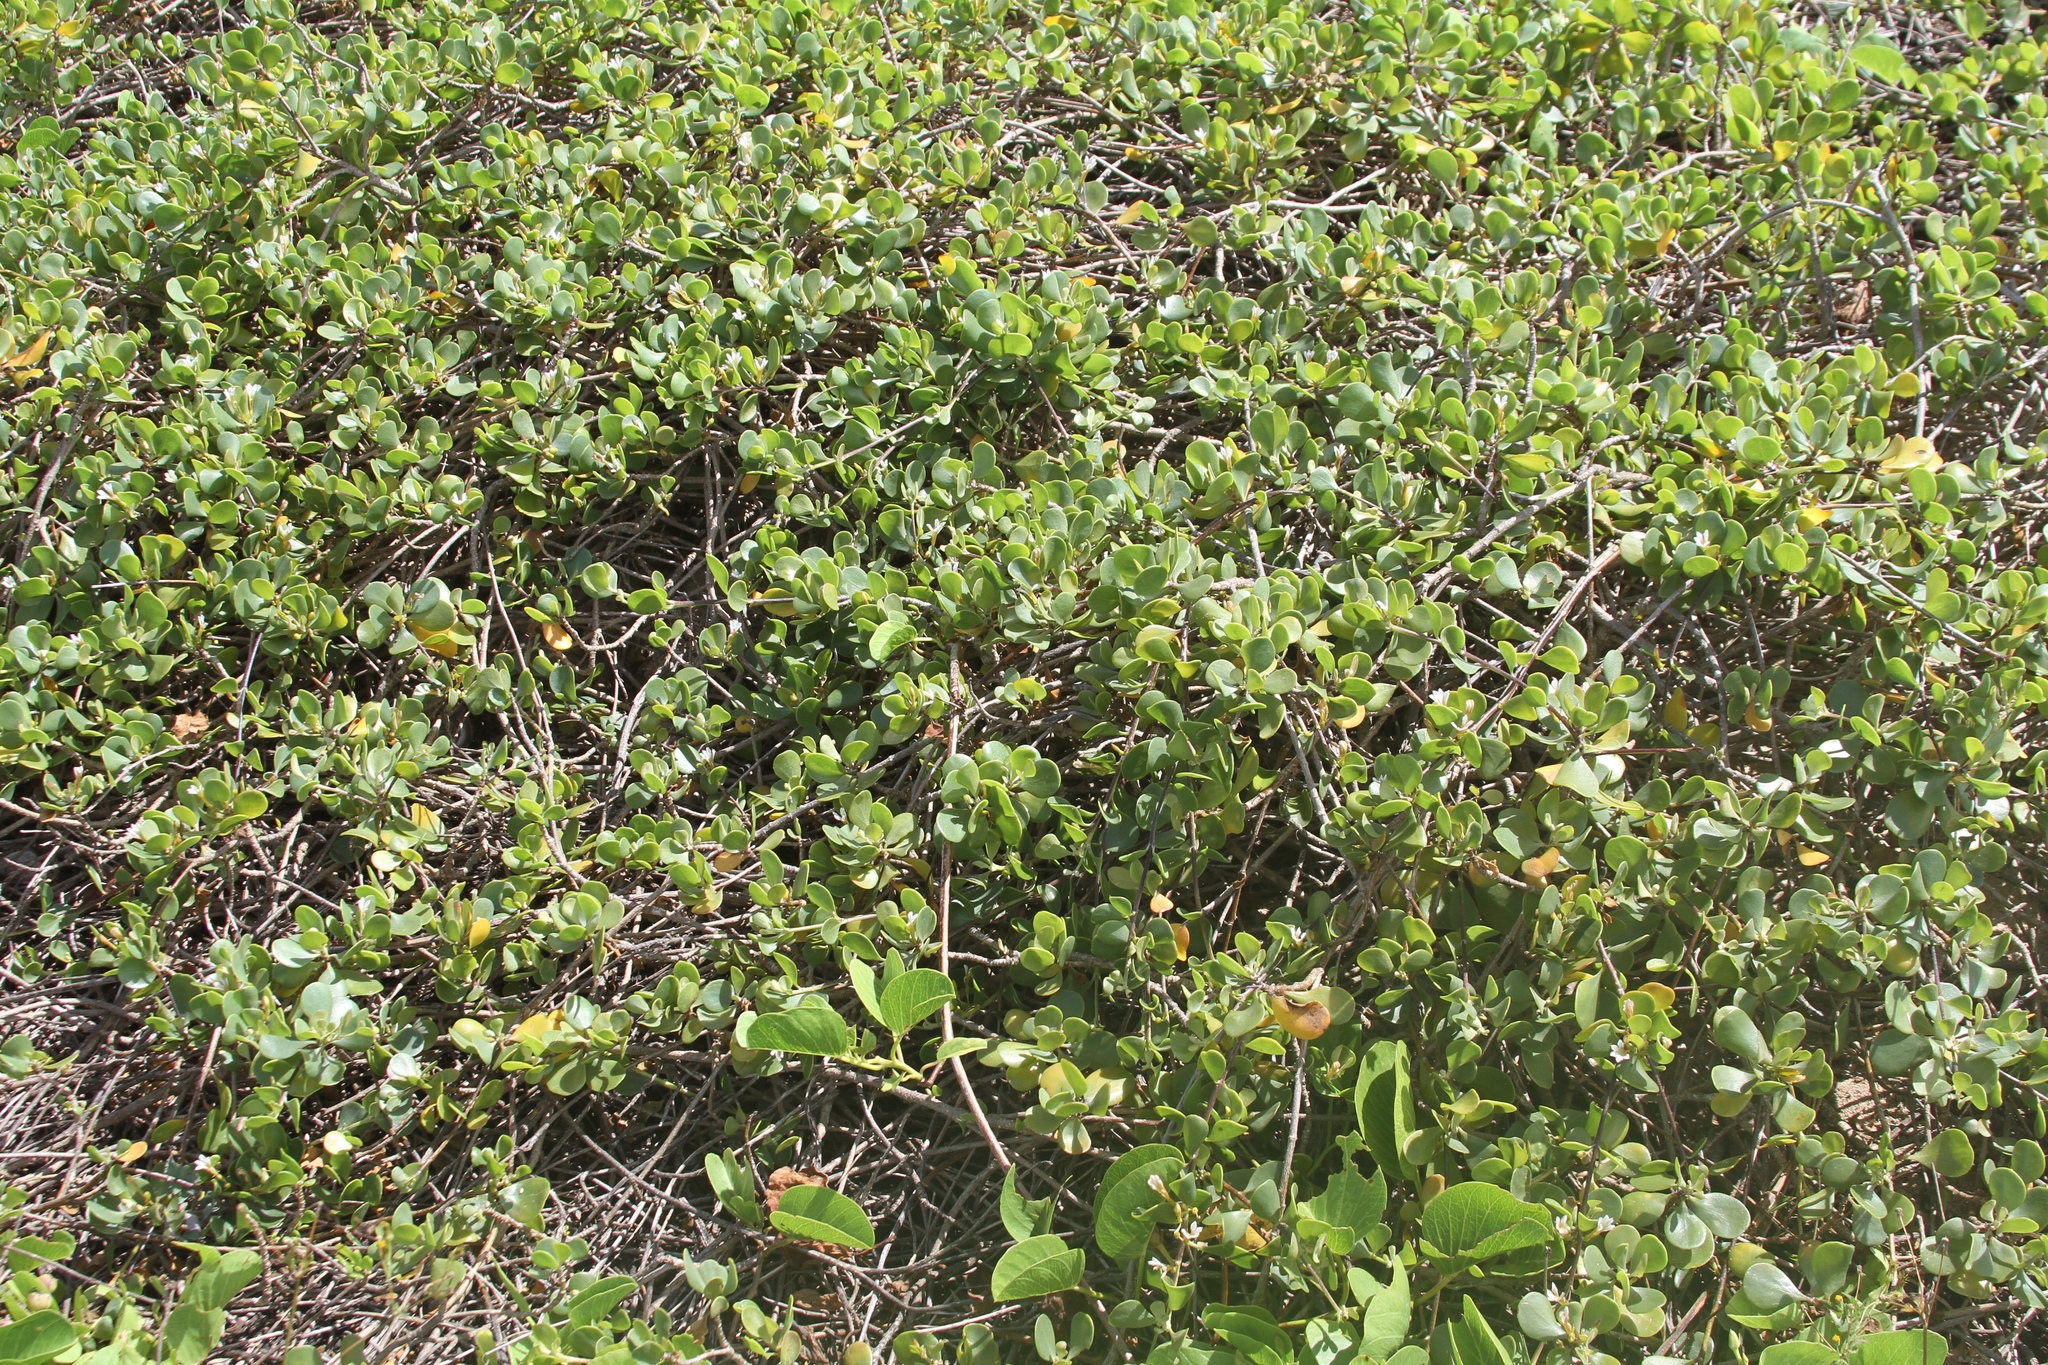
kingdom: Plantae
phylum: Tracheophyta
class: Magnoliopsida
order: Asterales
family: Goodeniaceae
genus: Scaevola
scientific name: Scaevola coriacea
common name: Dwarf naupaka
